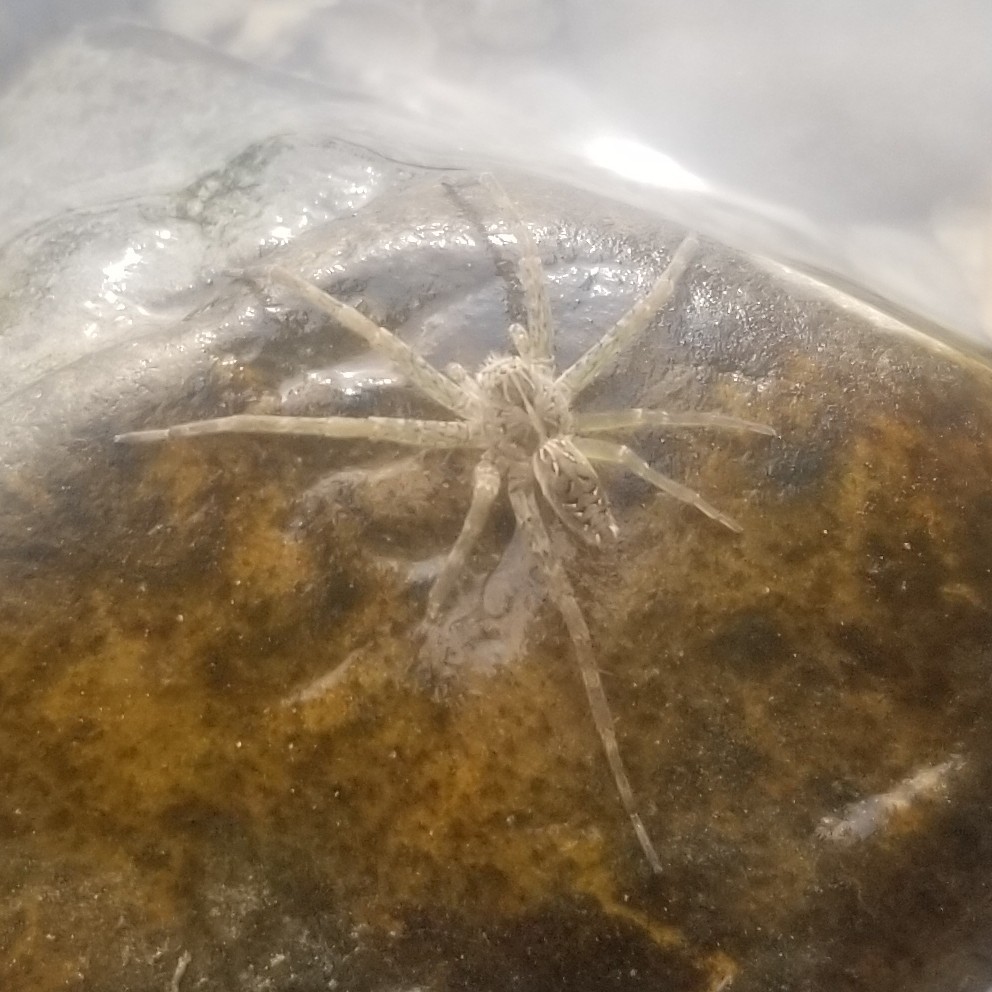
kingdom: Animalia
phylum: Arthropoda
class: Arachnida
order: Araneae
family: Pisauridae
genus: Dolomedes
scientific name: Dolomedes scriptus
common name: Striped fishing spider
